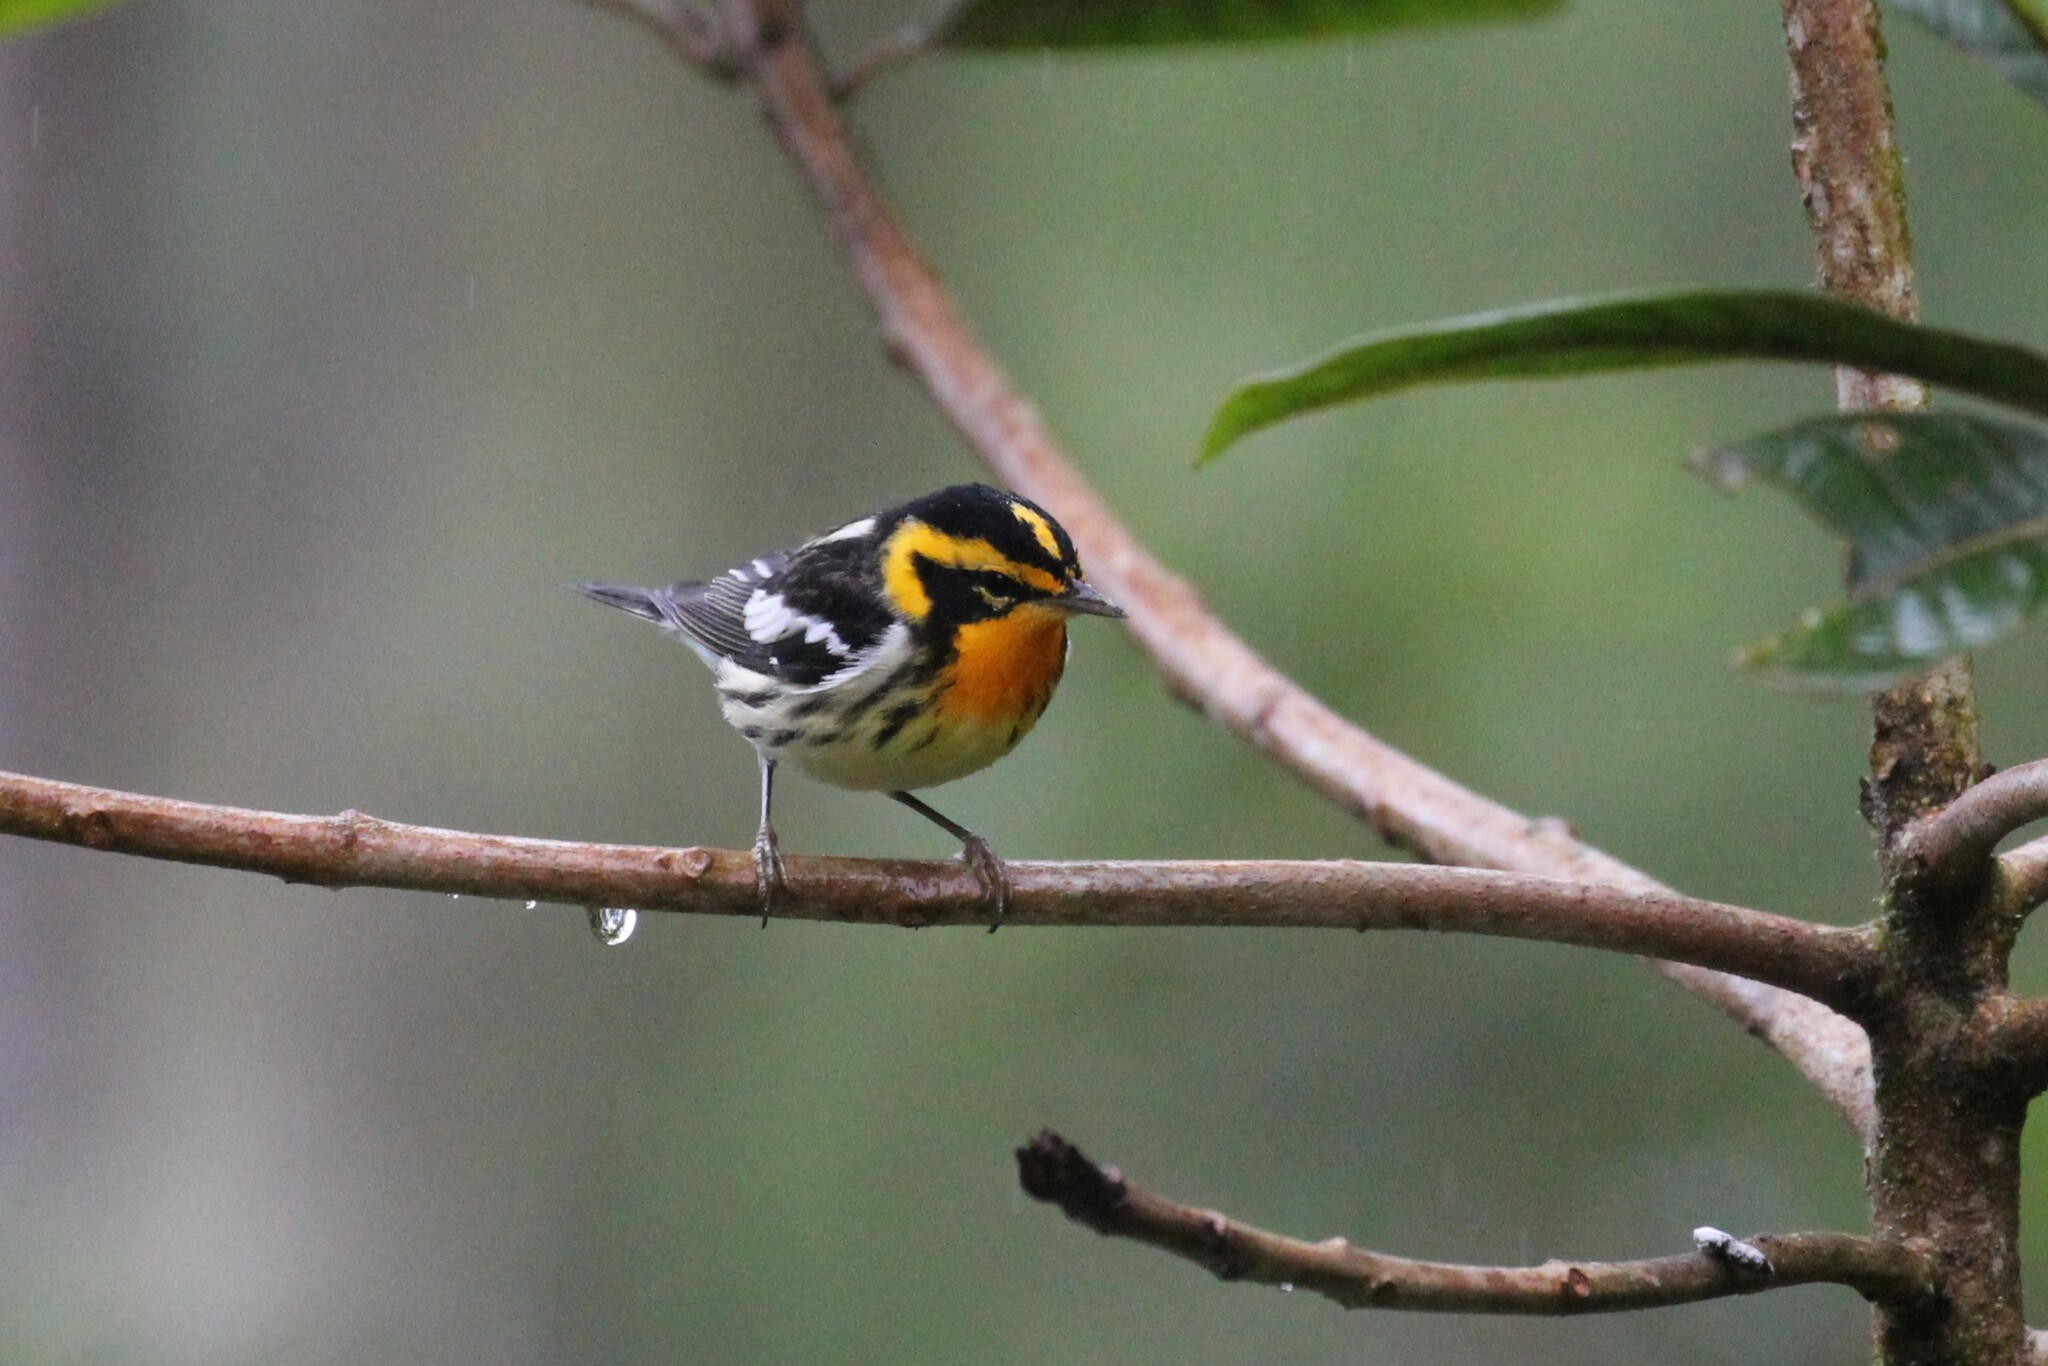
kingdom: Animalia
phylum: Chordata
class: Aves
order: Passeriformes
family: Parulidae
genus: Setophaga
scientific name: Setophaga fusca
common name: Blackburnian warbler
